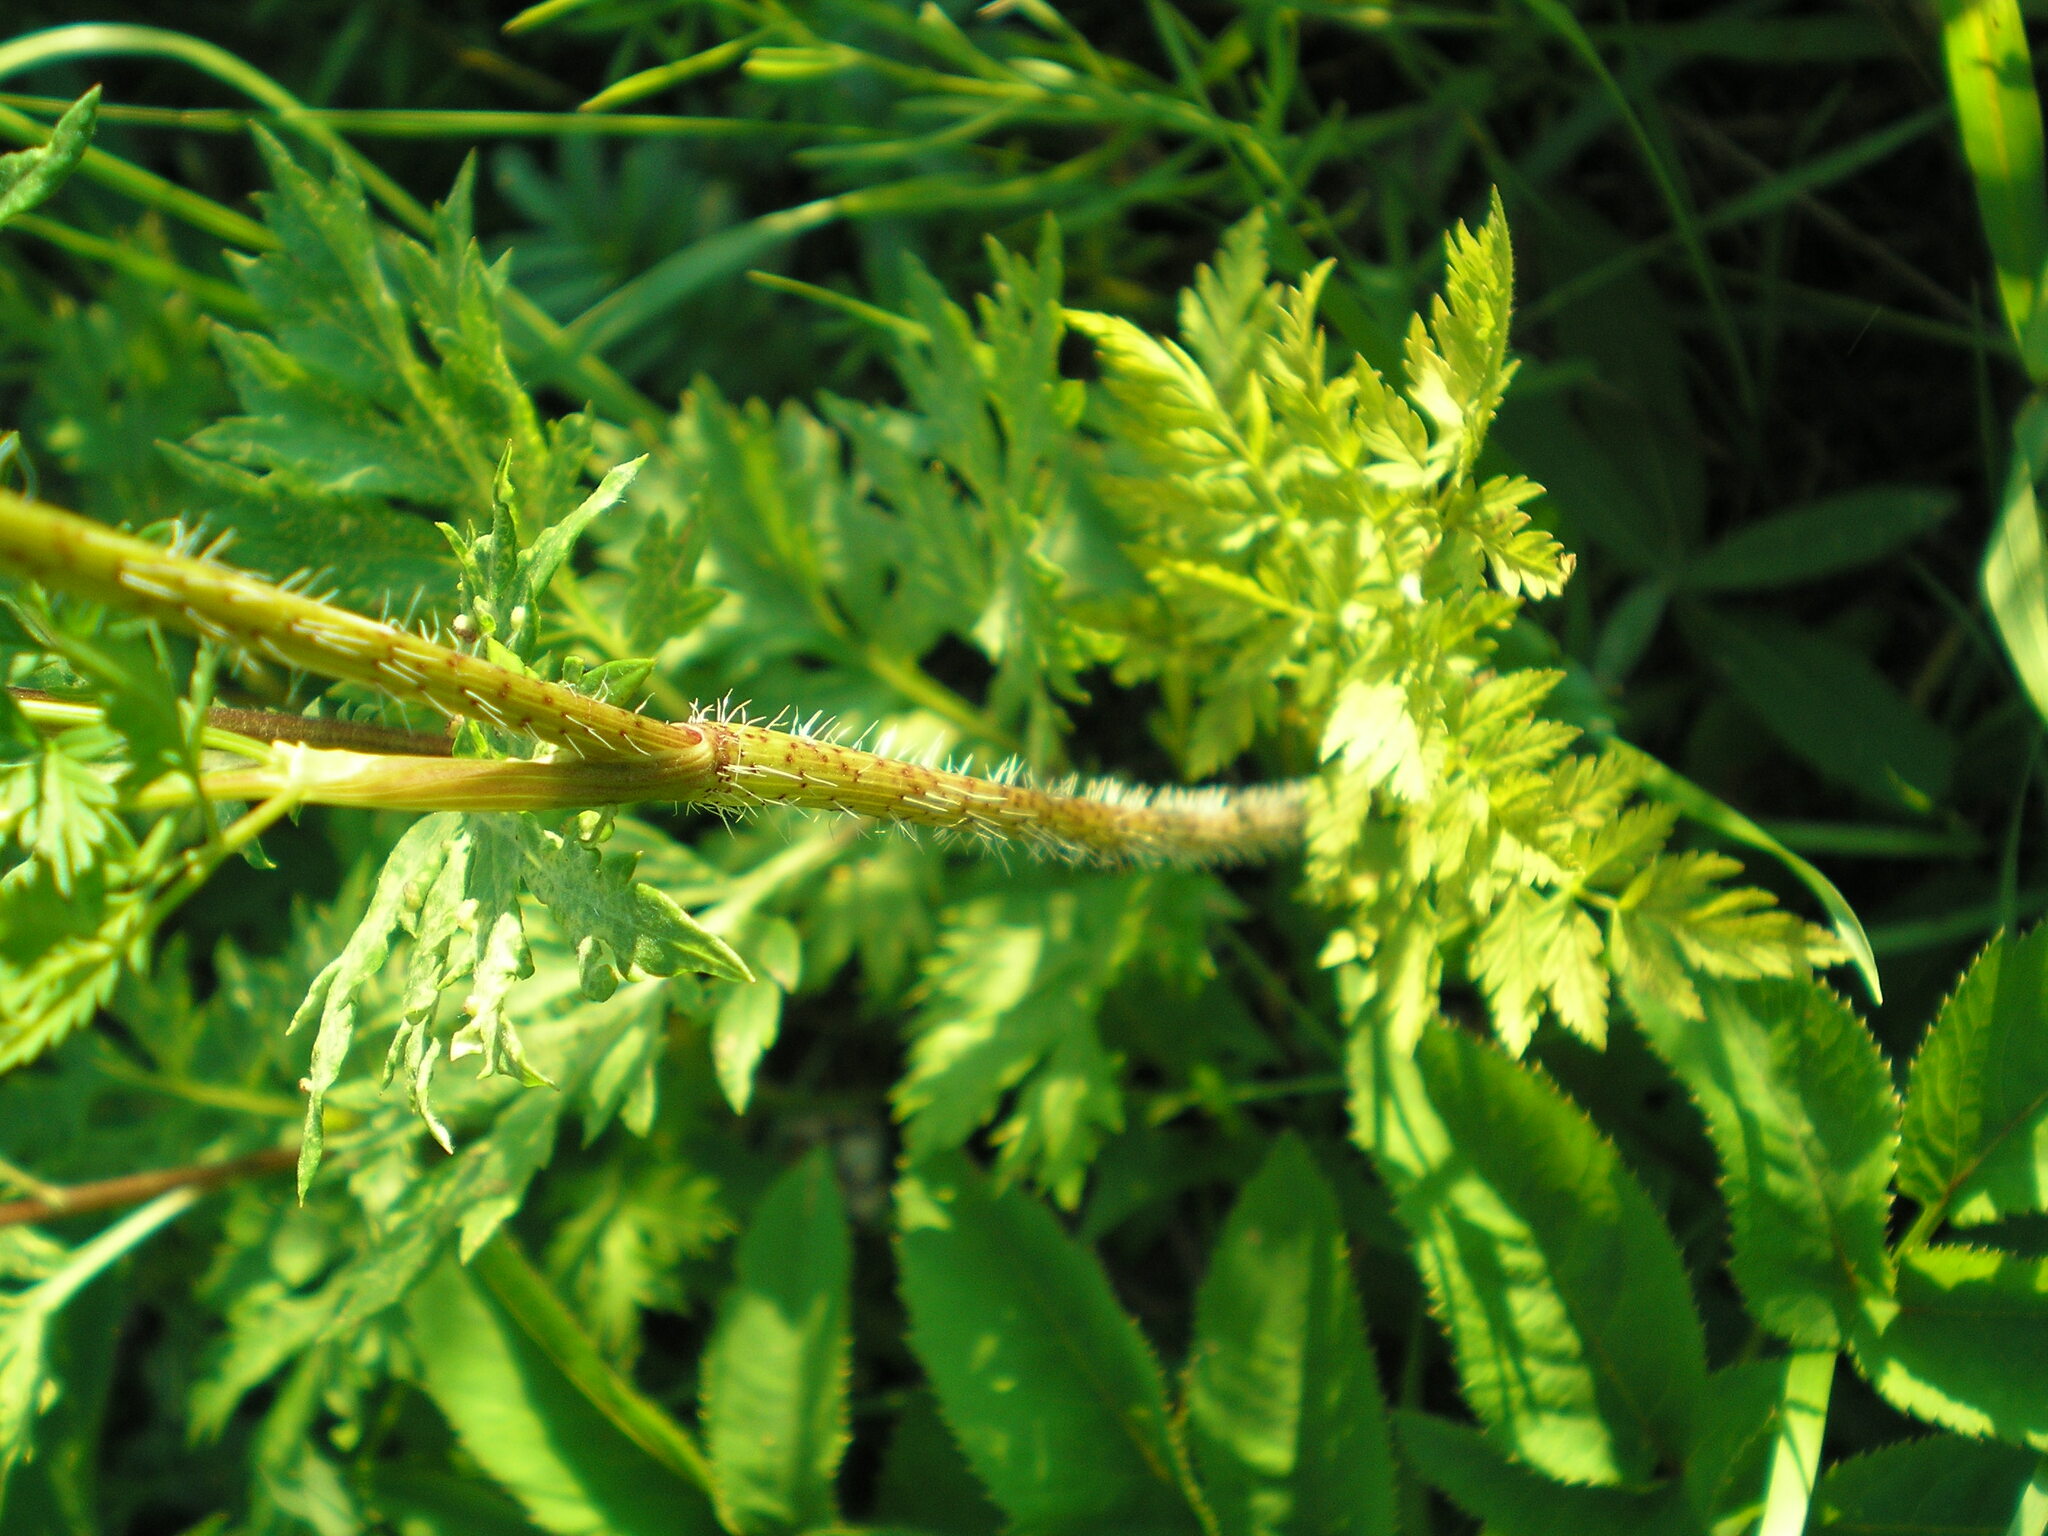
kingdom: Plantae
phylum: Tracheophyta
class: Magnoliopsida
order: Apiales
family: Apiaceae
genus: Chaerophyllum
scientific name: Chaerophyllum prescottii
